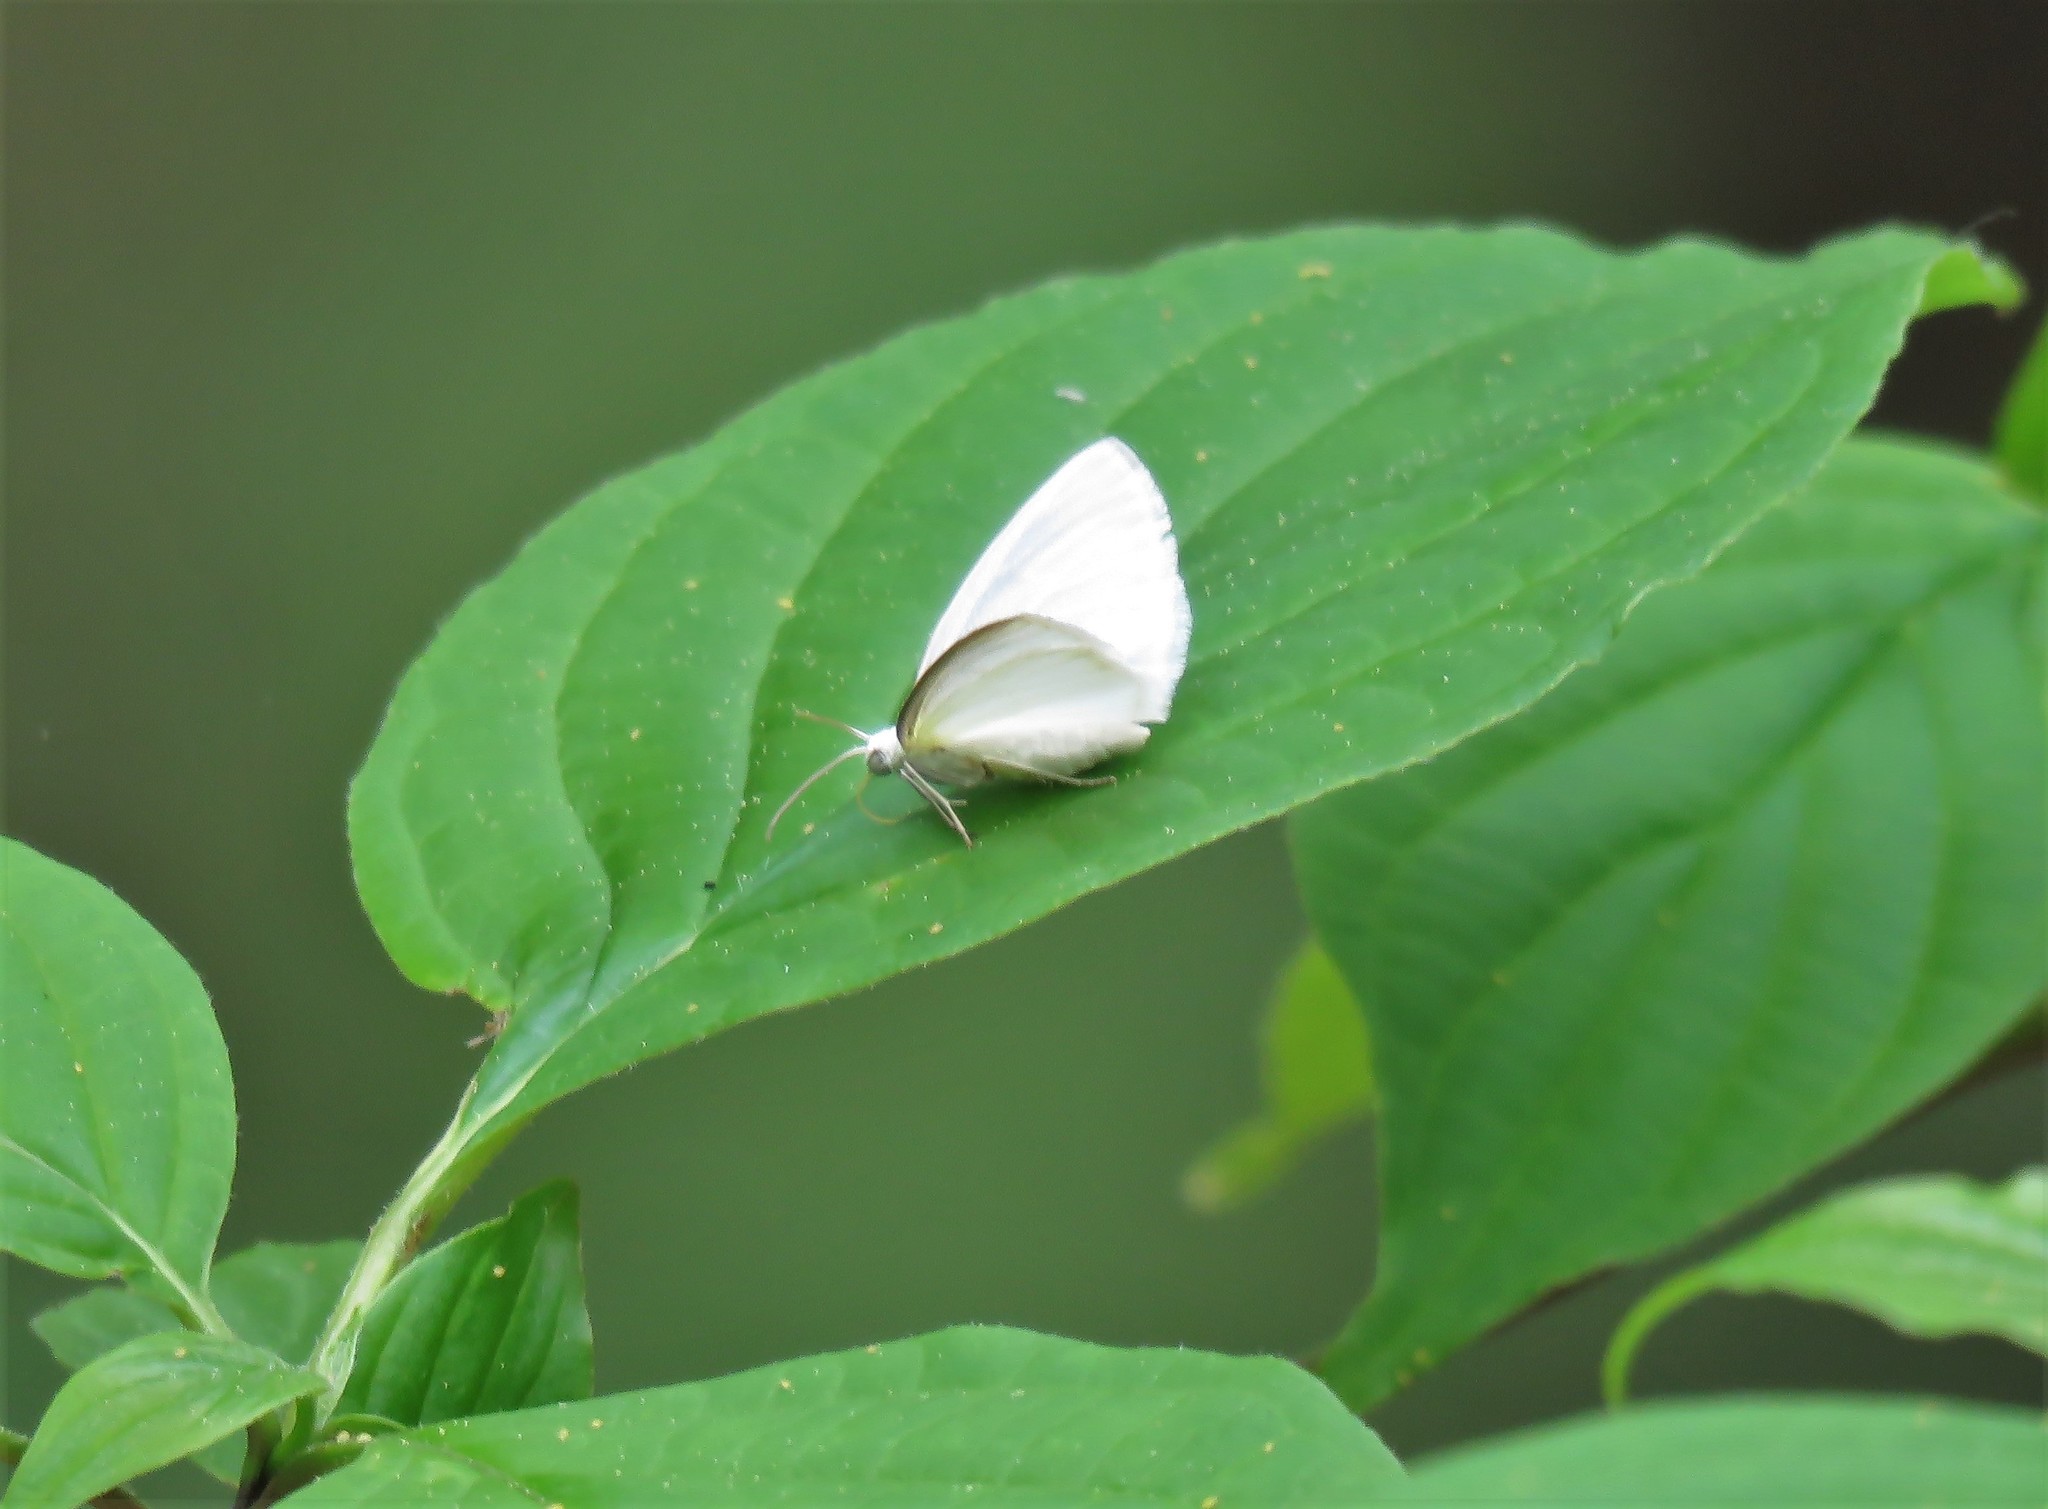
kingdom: Animalia
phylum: Arthropoda
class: Insecta
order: Lepidoptera
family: Geometridae
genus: Lomographa
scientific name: Lomographa vestaliata
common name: White spring moth
